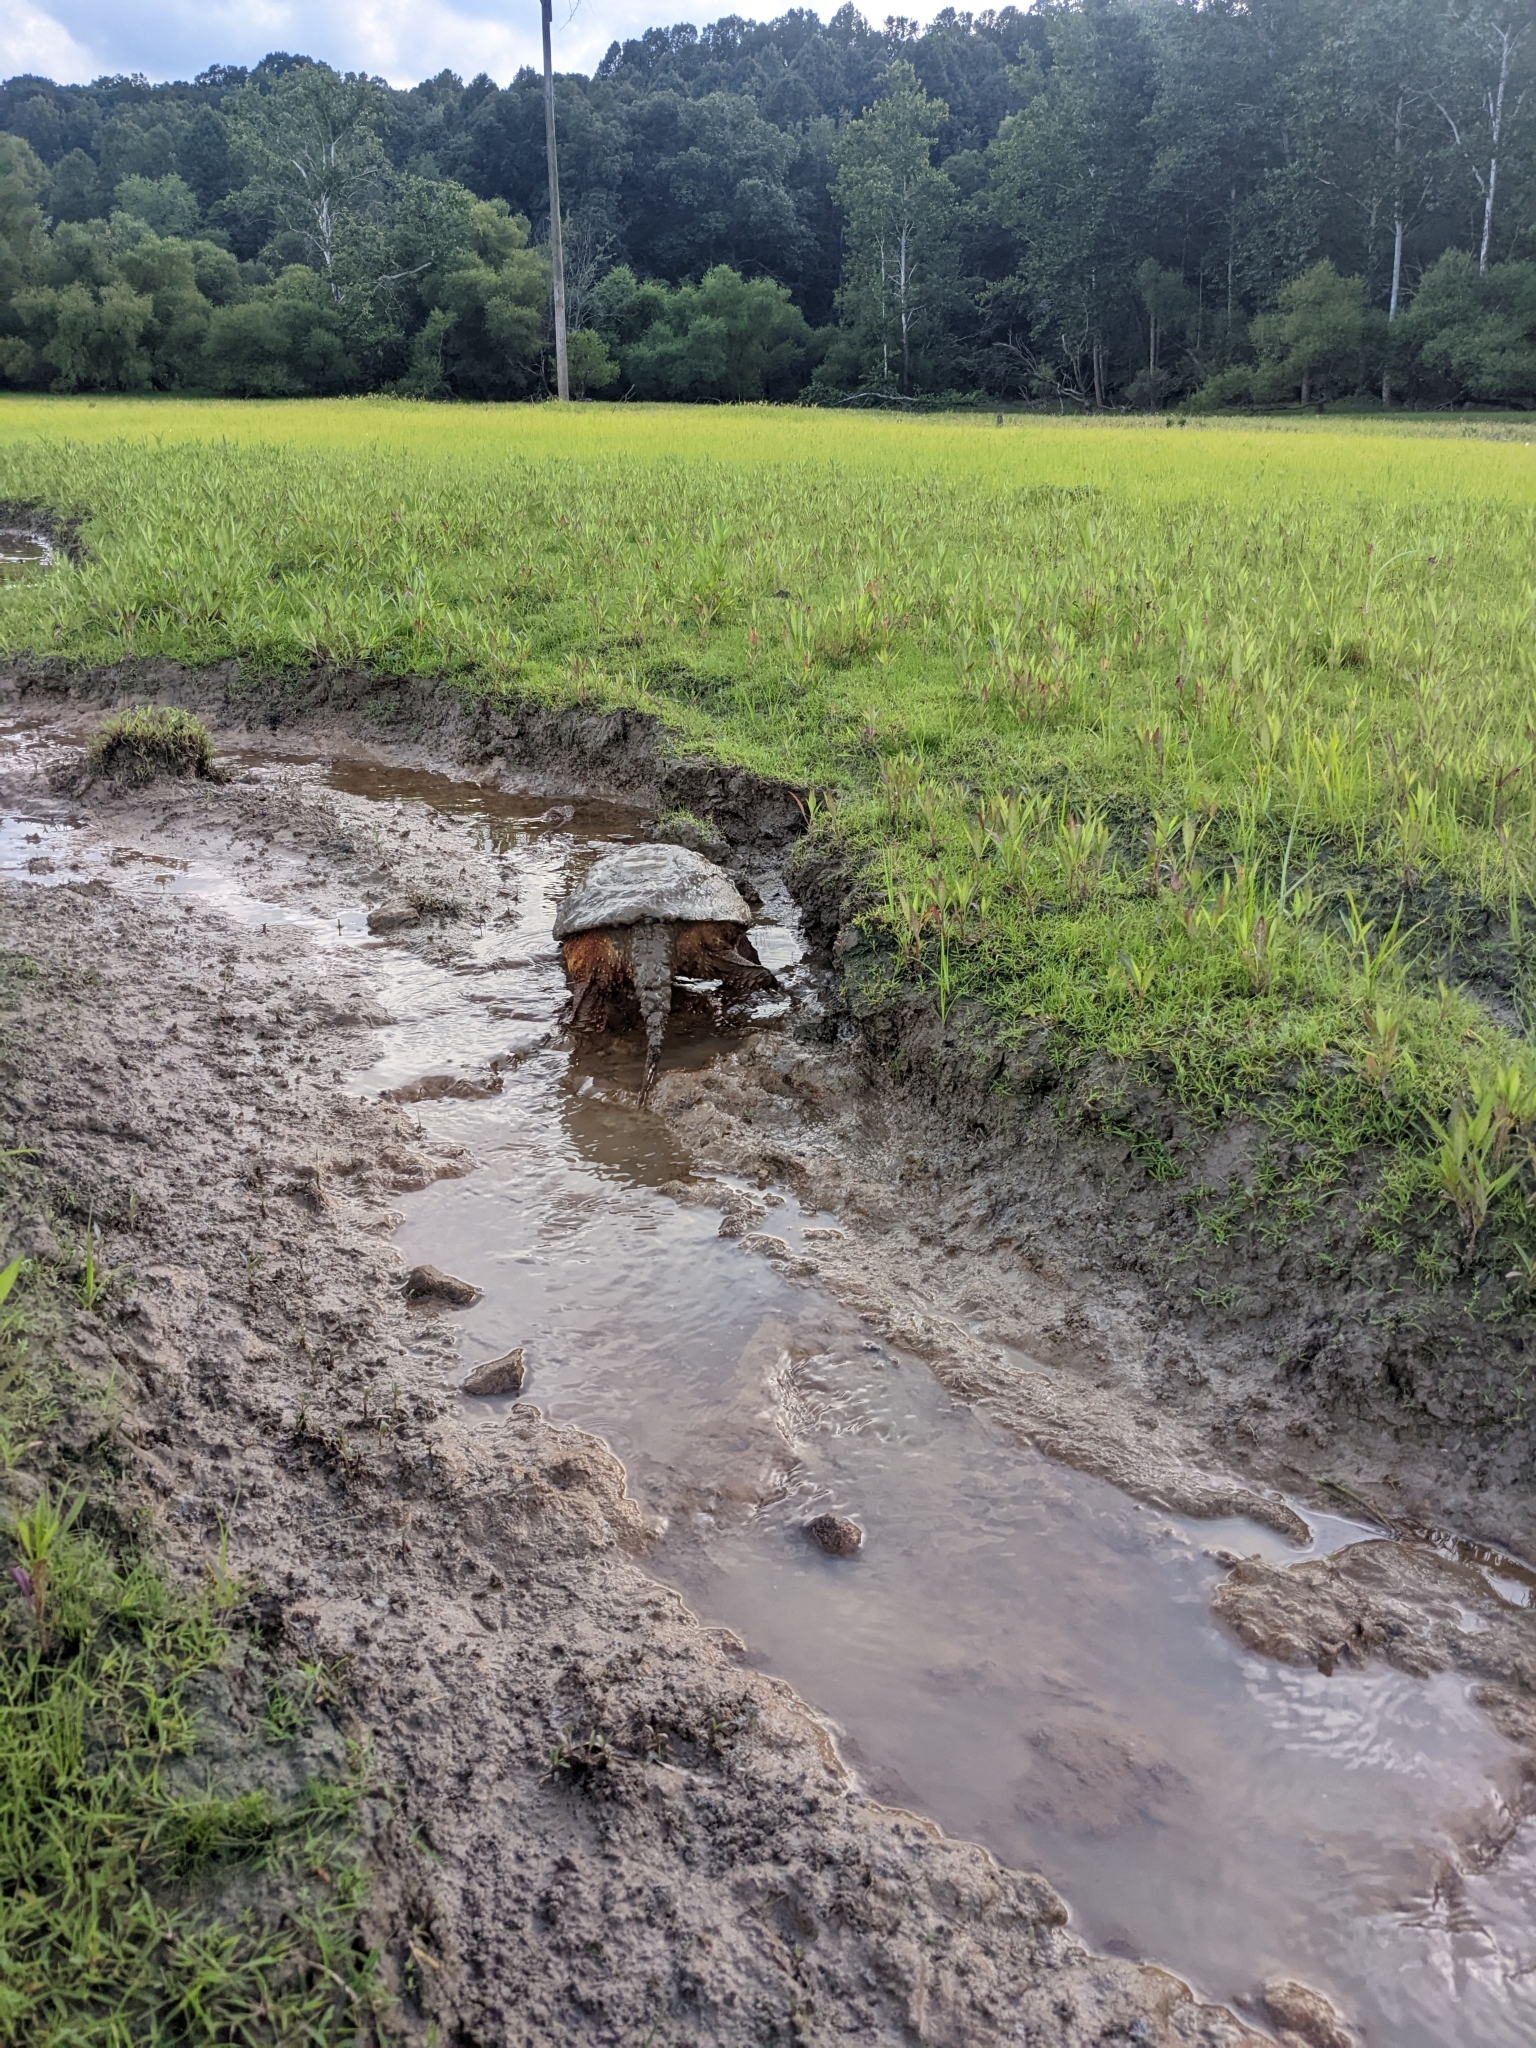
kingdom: Animalia
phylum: Chordata
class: Testudines
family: Chelydridae
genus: Chelydra
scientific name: Chelydra serpentina
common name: Common snapping turtle
